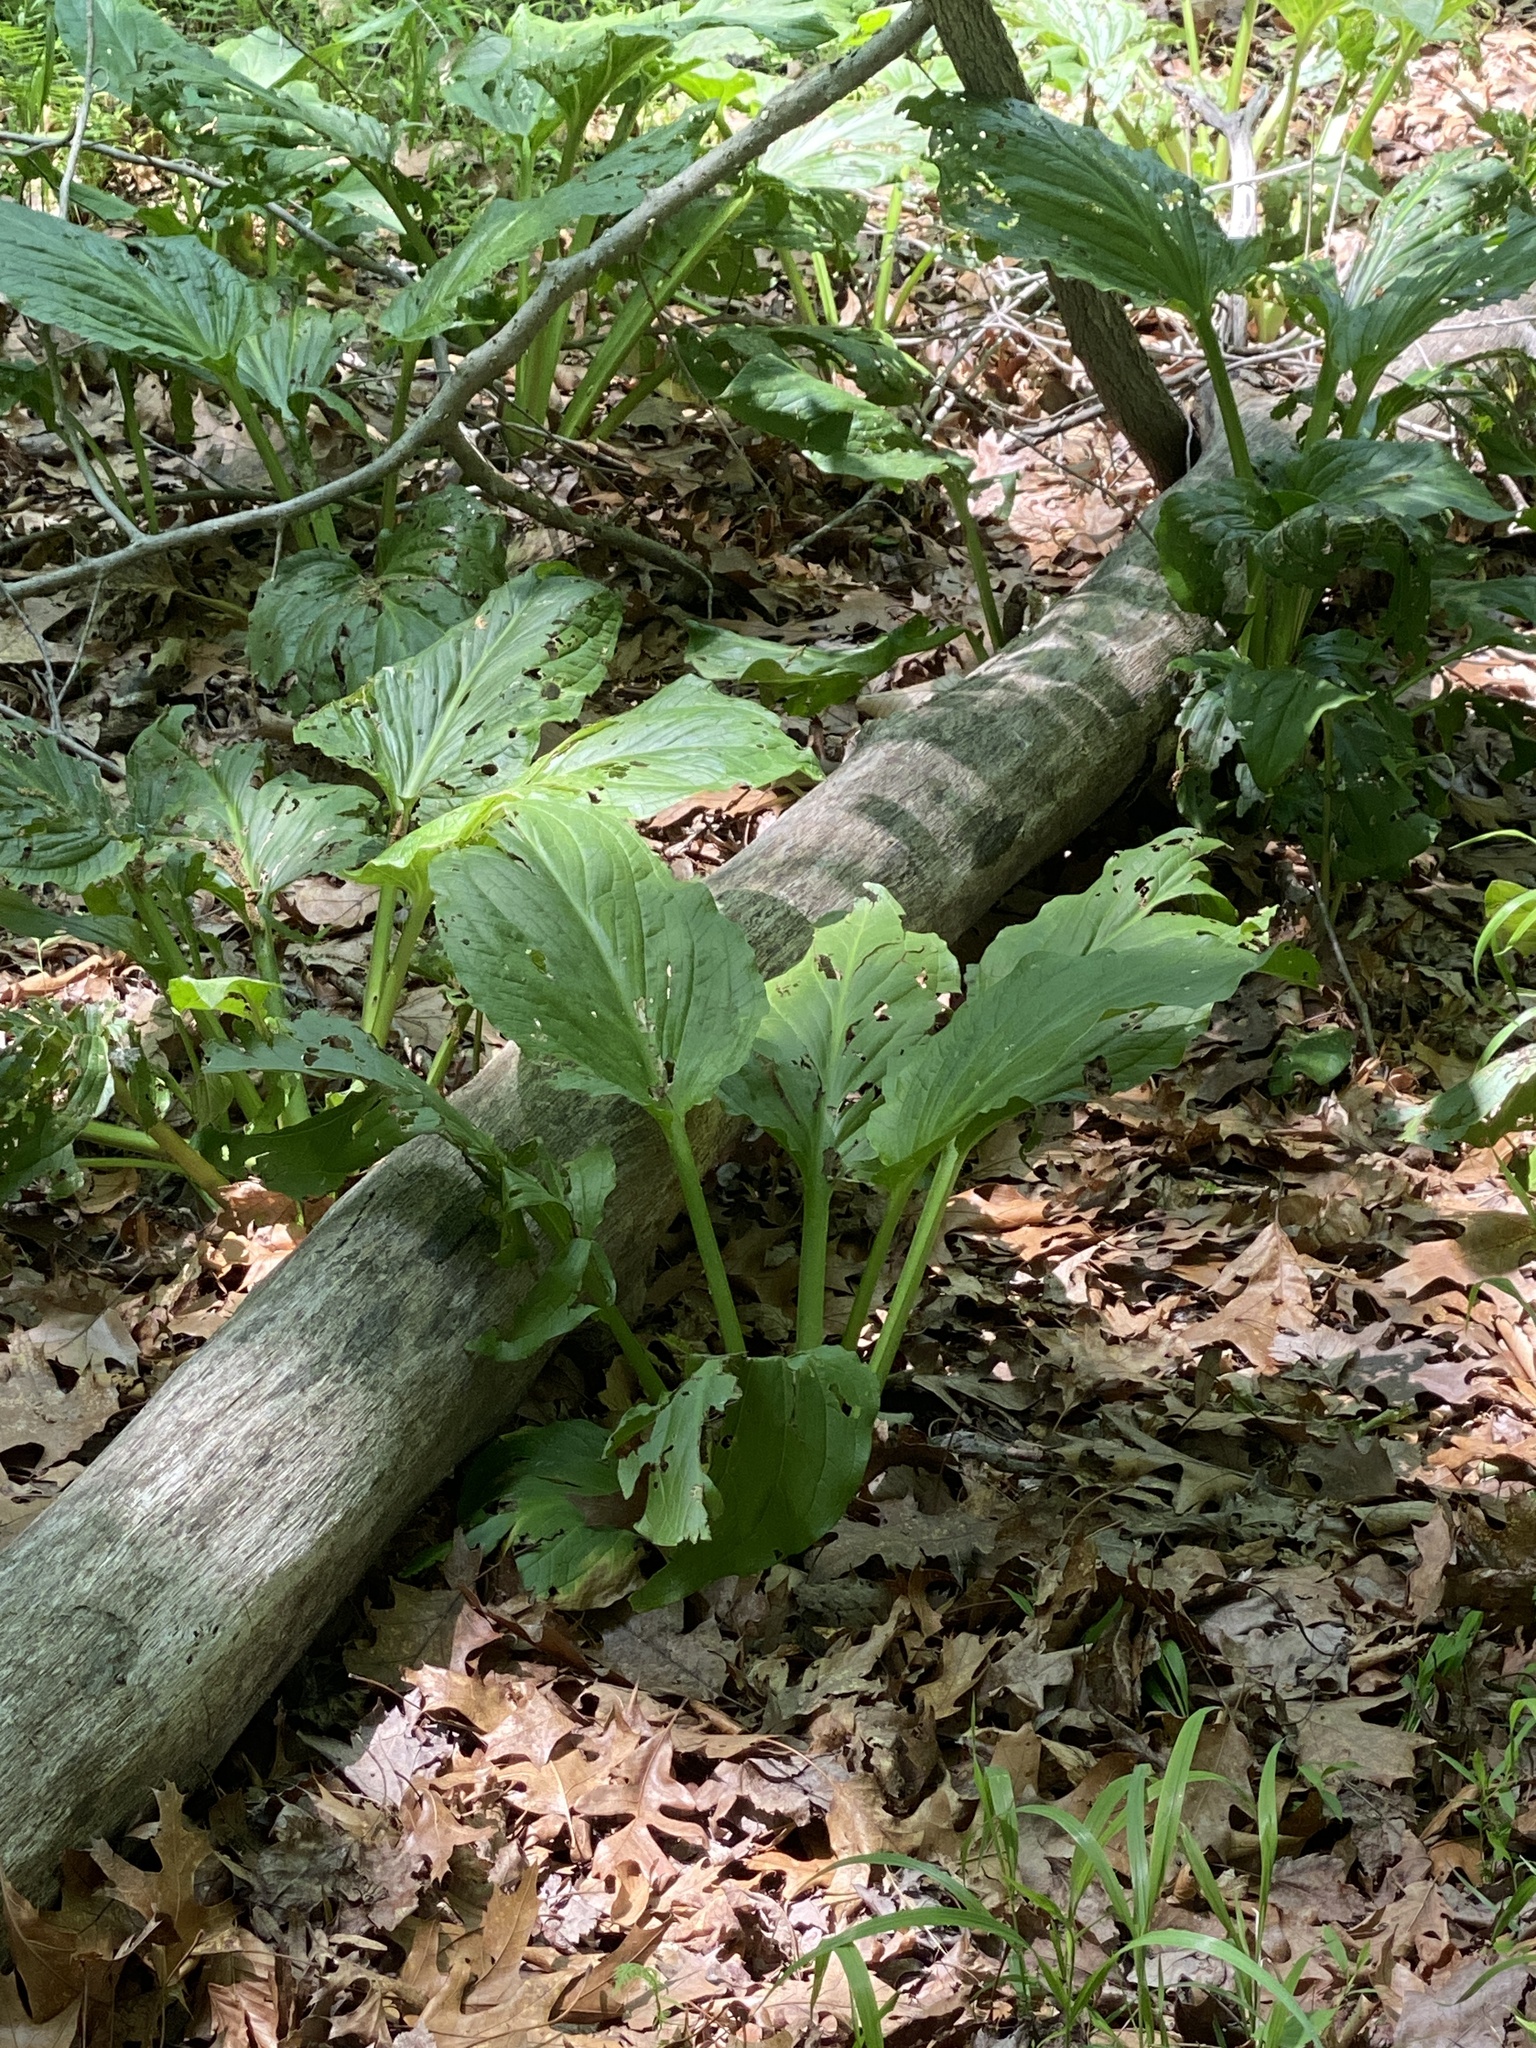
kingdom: Plantae
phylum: Tracheophyta
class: Liliopsida
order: Alismatales
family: Araceae
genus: Symplocarpus
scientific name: Symplocarpus foetidus
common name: Eastern skunk cabbage
